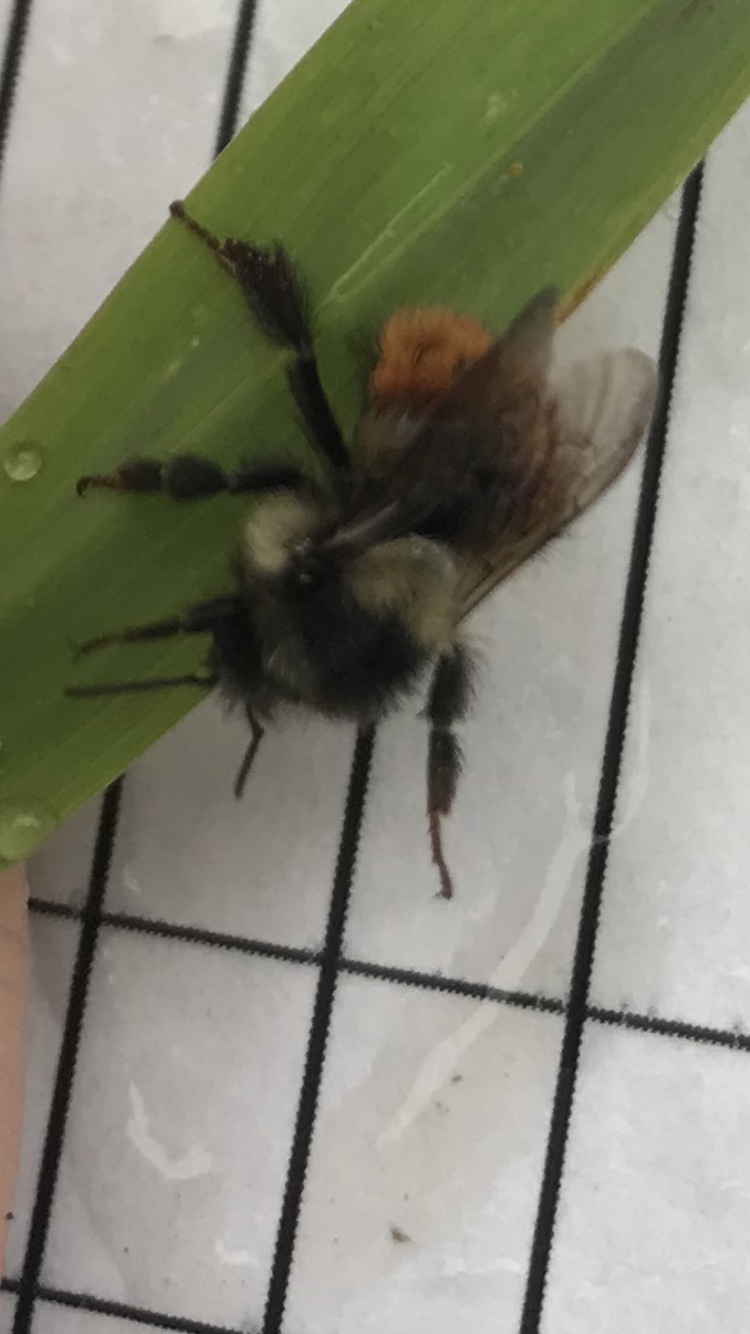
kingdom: Animalia
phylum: Arthropoda
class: Insecta
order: Hymenoptera
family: Apidae
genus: Bombus
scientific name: Bombus melanopygus
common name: Black tail bumble bee
